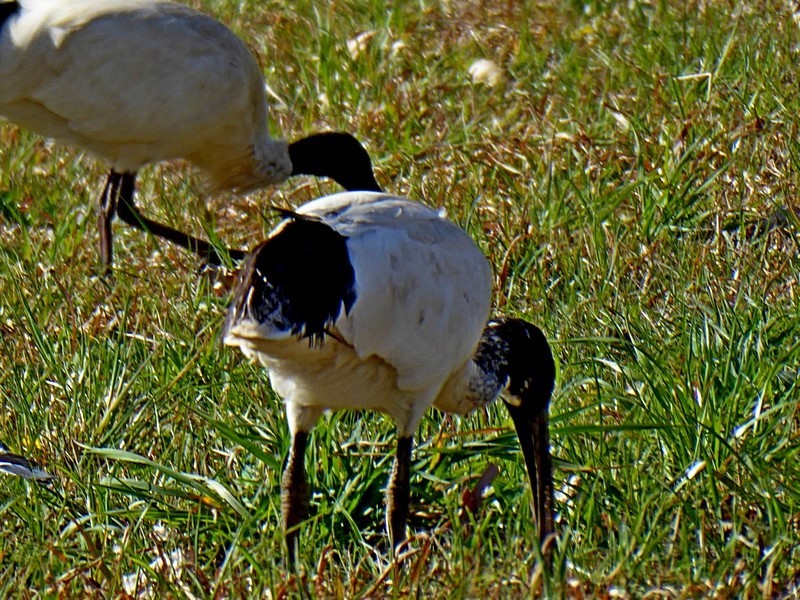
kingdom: Animalia
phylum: Chordata
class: Aves
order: Pelecaniformes
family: Threskiornithidae
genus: Threskiornis
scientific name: Threskiornis molucca
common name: Australian white ibis
